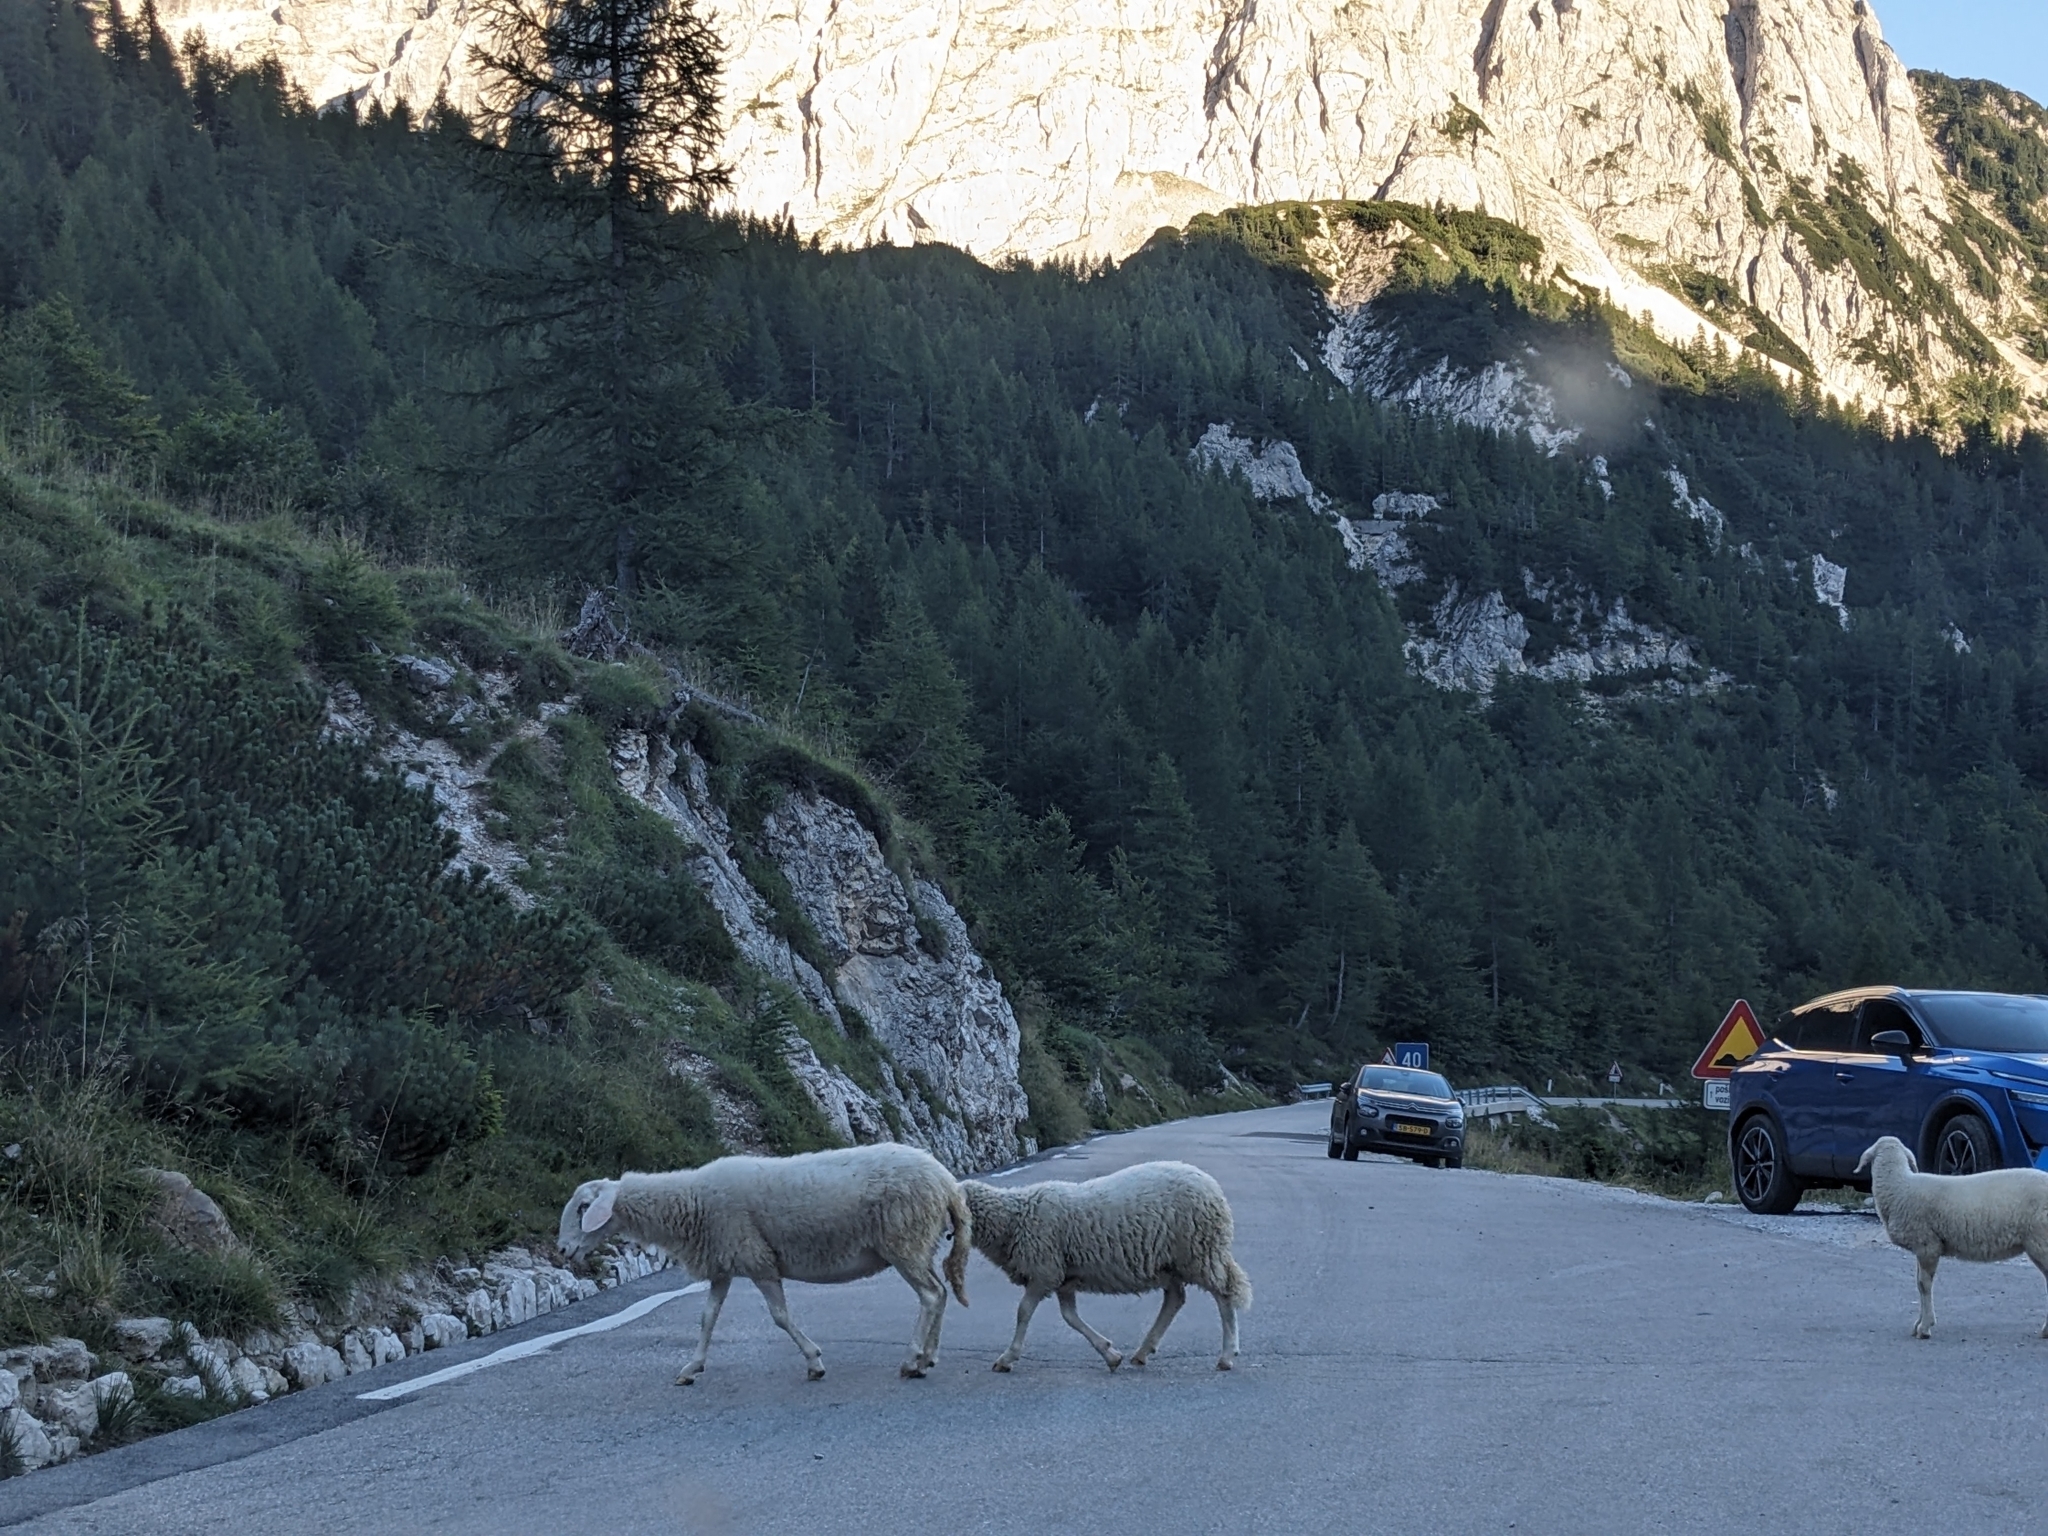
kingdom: Animalia
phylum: Chordata
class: Mammalia
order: Artiodactyla
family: Bovidae
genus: Ovis
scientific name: Ovis aries
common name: Domestic sheep
